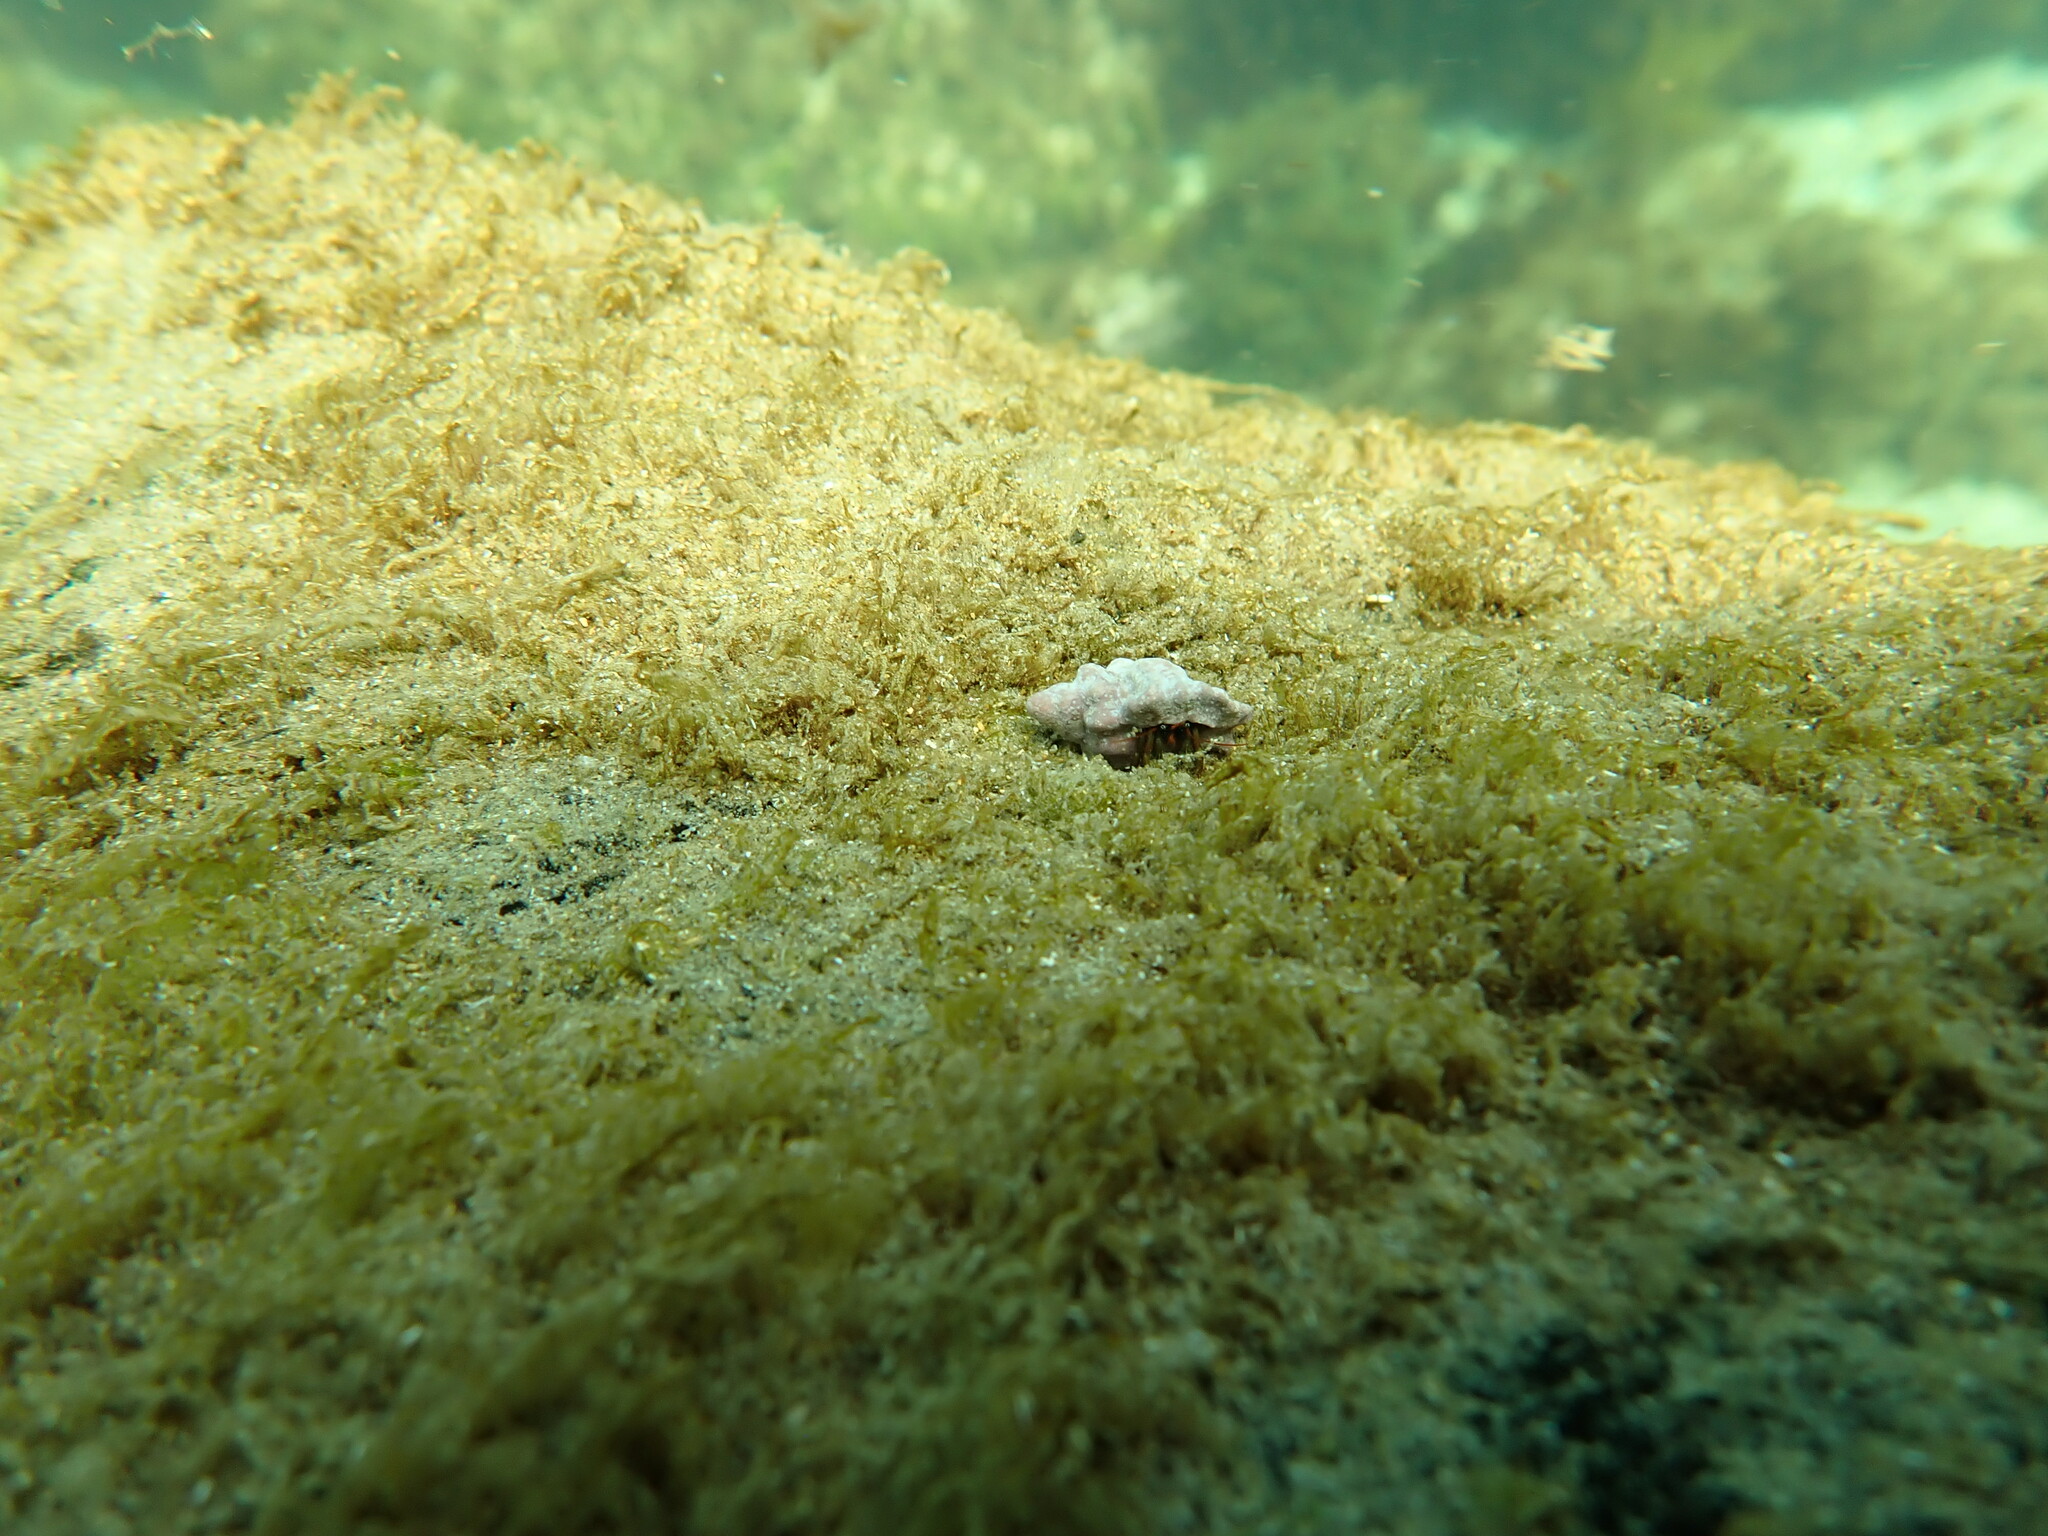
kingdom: Animalia
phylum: Arthropoda
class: Malacostraca
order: Decapoda
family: Diogenidae
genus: Clibanarius
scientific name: Clibanarius erythropus
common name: Hermit crab
